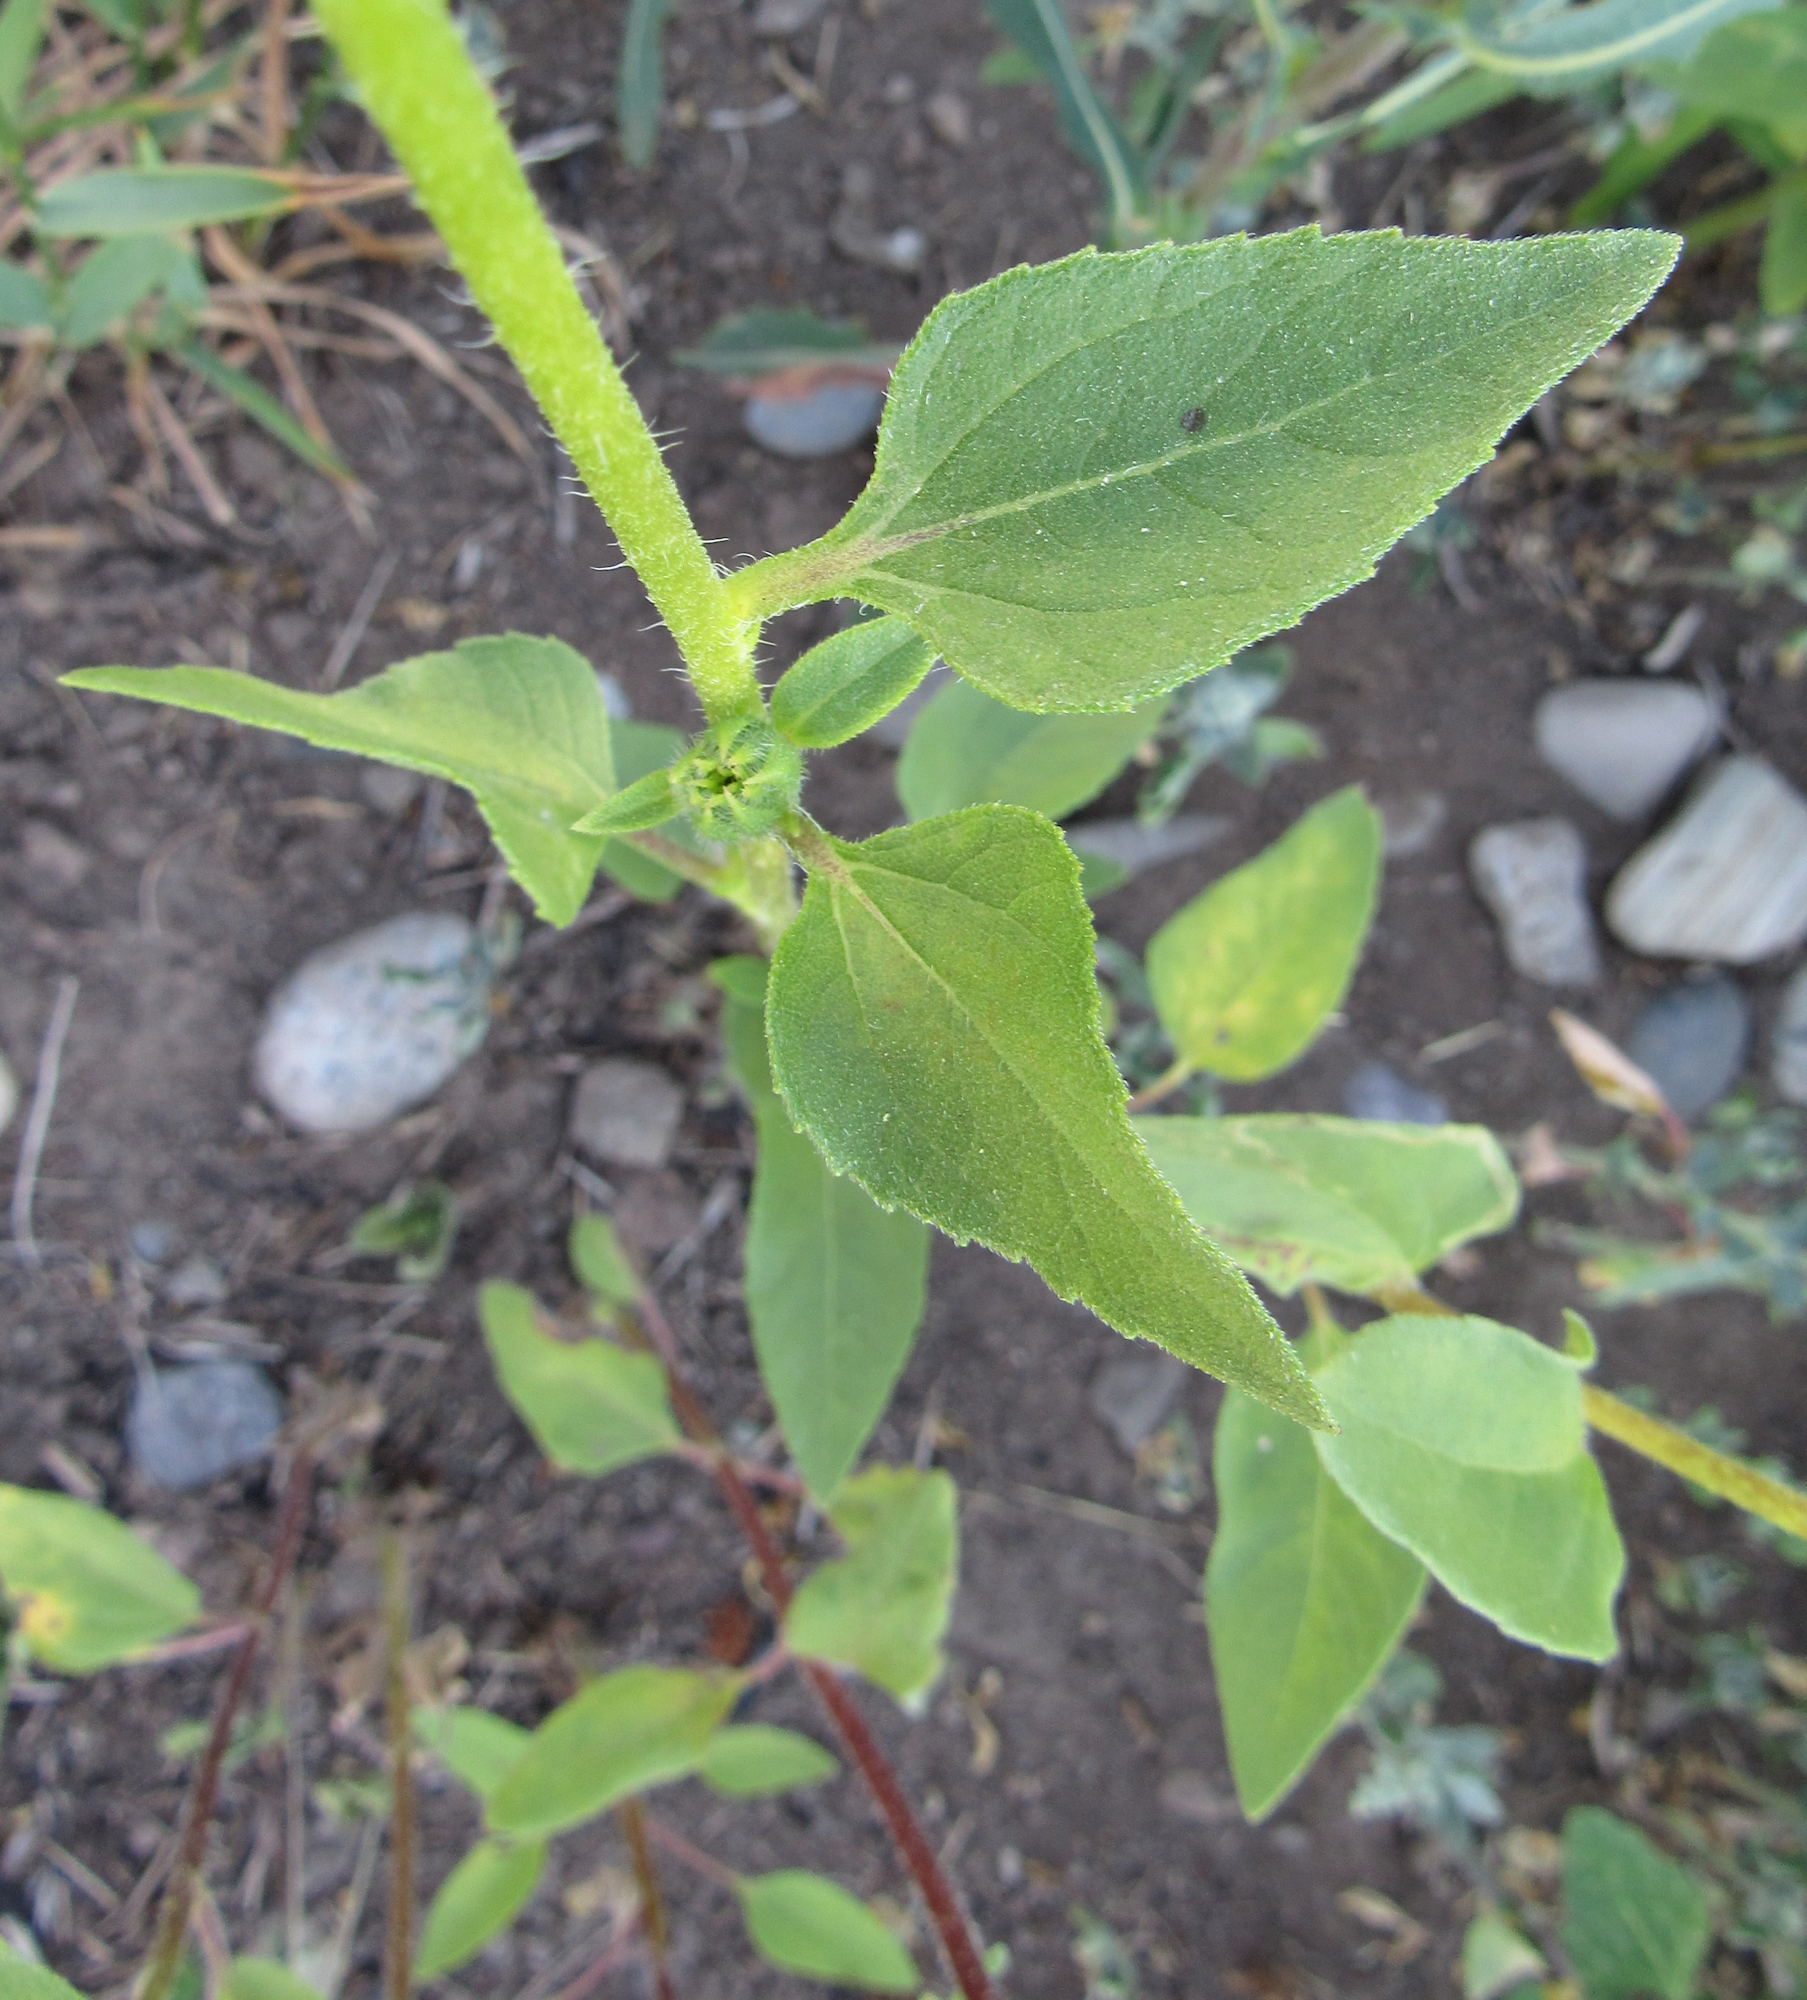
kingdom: Plantae
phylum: Tracheophyta
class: Magnoliopsida
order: Asterales
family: Asteraceae
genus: Helianthus
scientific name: Helianthus annuus
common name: Sunflower
